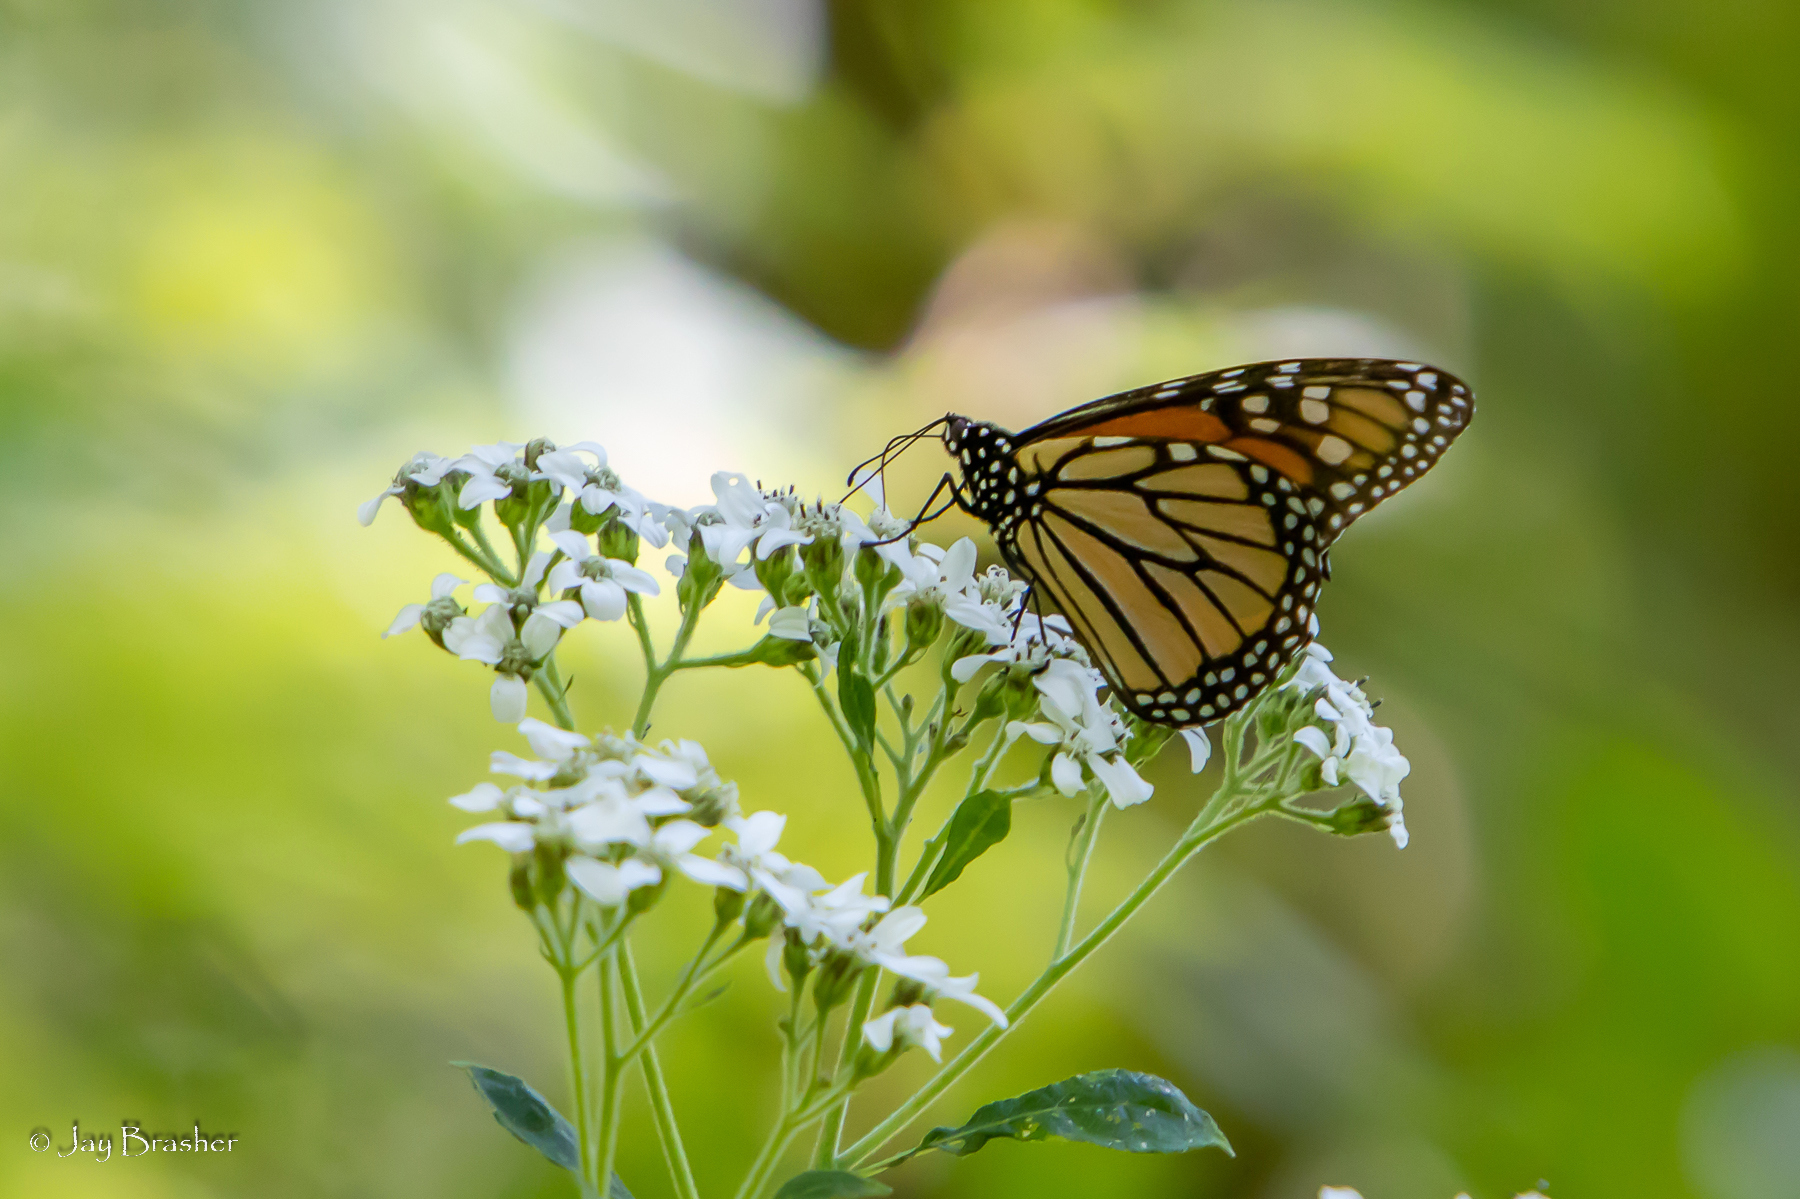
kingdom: Animalia
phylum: Arthropoda
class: Insecta
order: Lepidoptera
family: Nymphalidae
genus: Danaus
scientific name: Danaus plexippus
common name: Monarch
